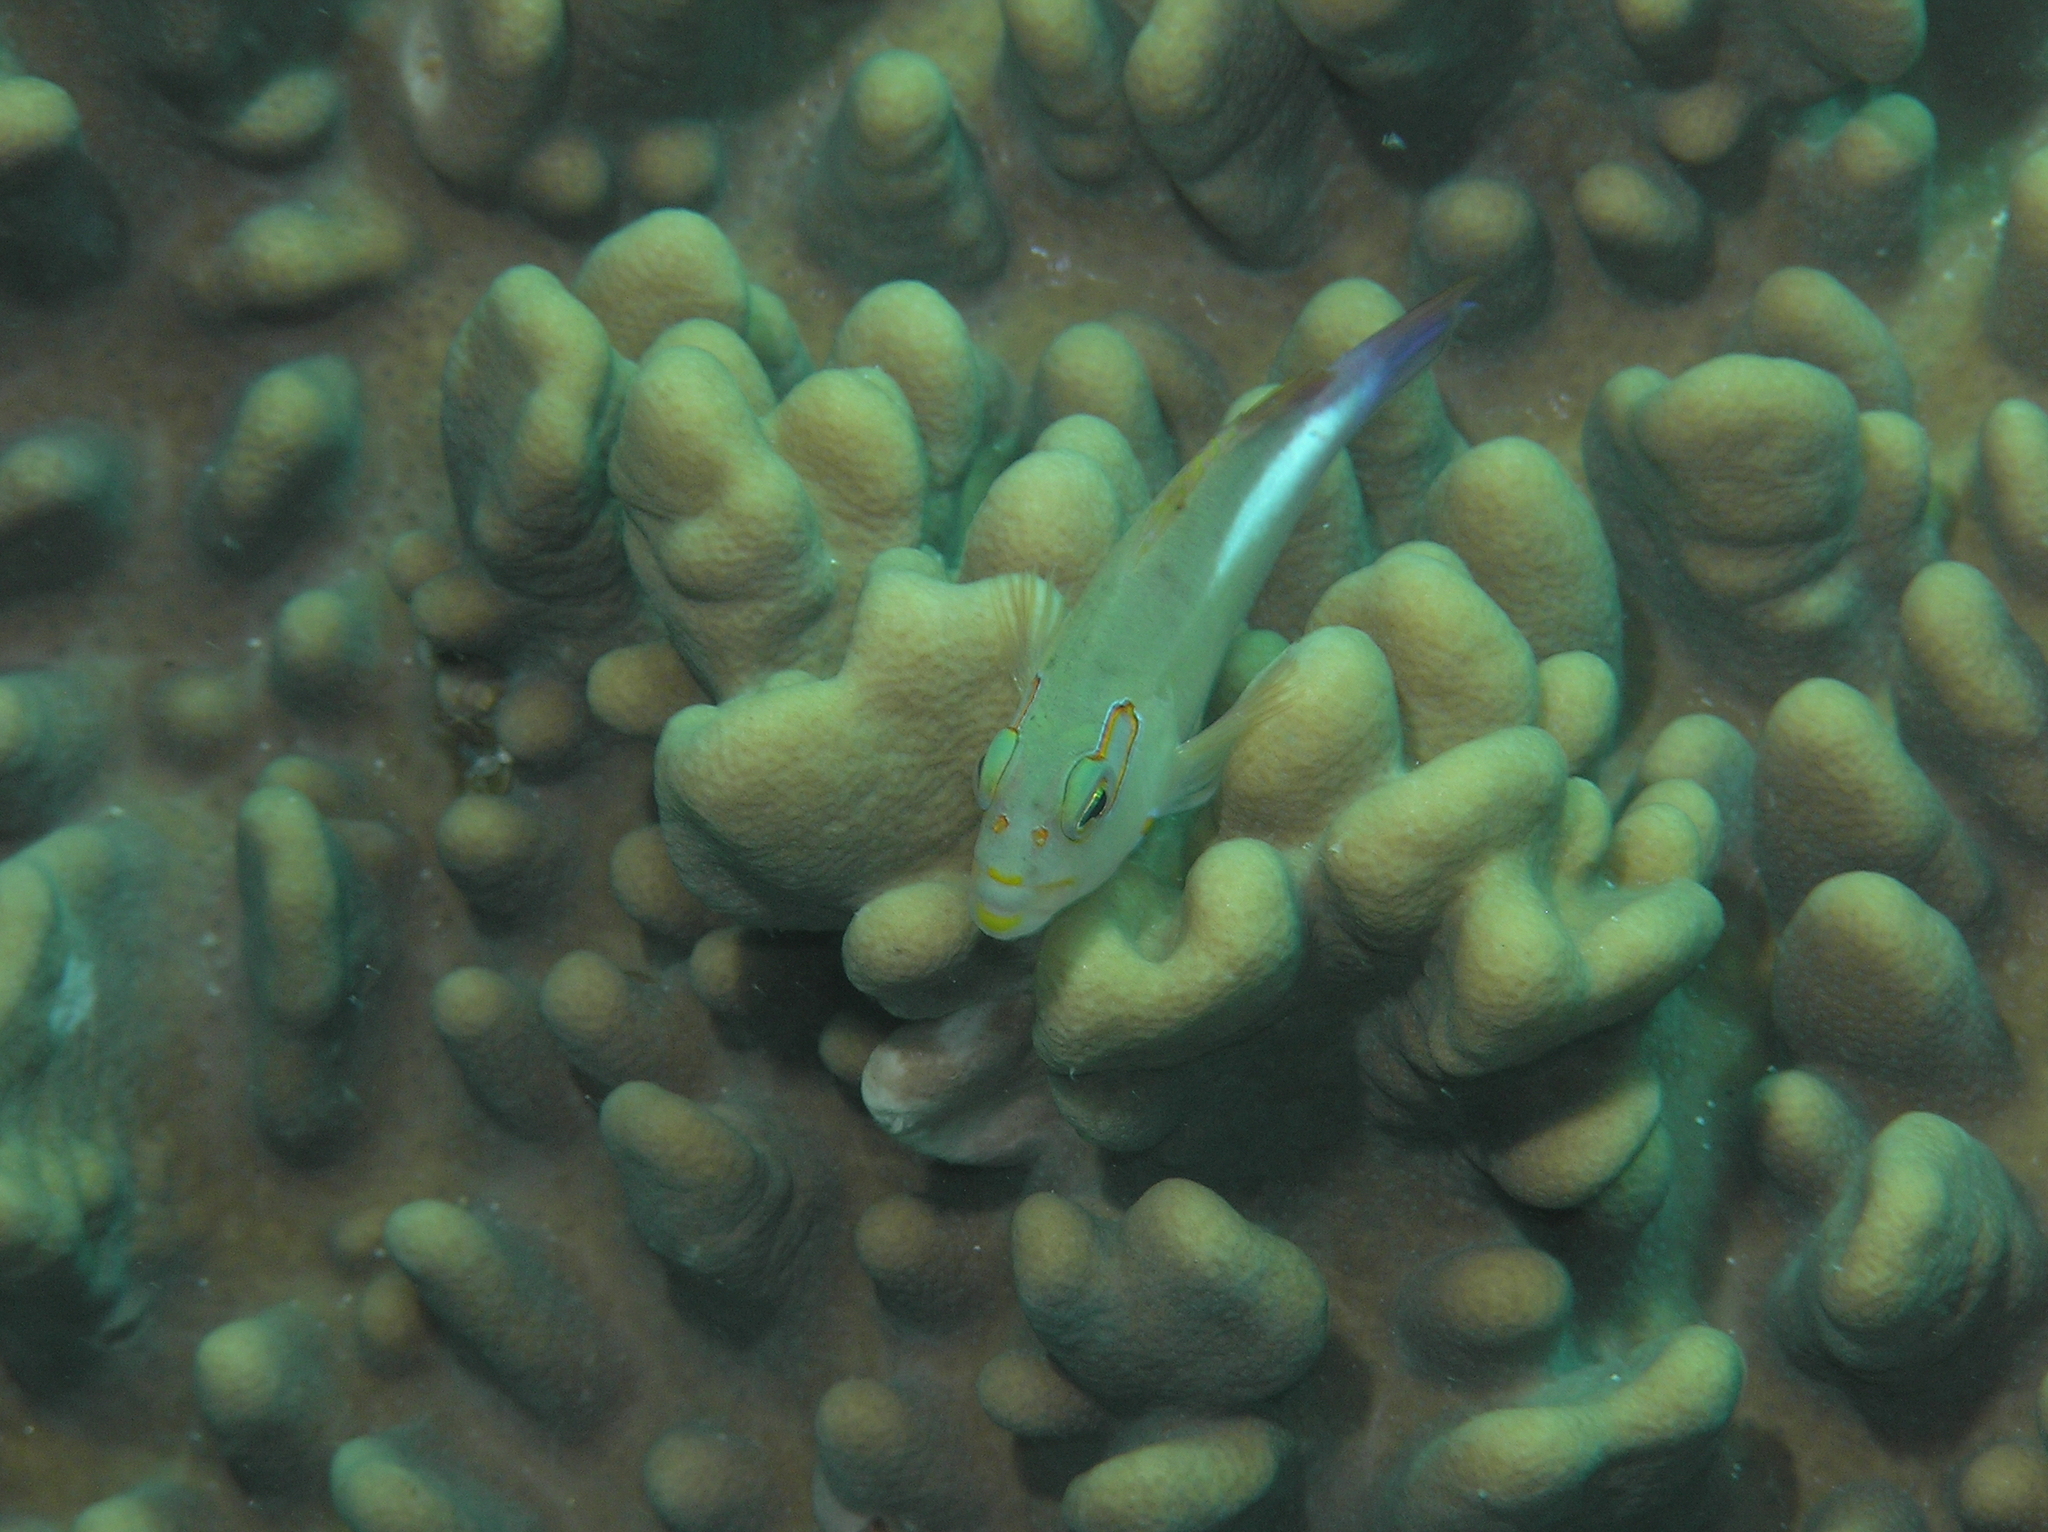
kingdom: Animalia
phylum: Chordata
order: Perciformes
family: Cirrhitidae
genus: Paracirrhites
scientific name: Paracirrhites arcatus
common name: Arc-eye hawkfish
